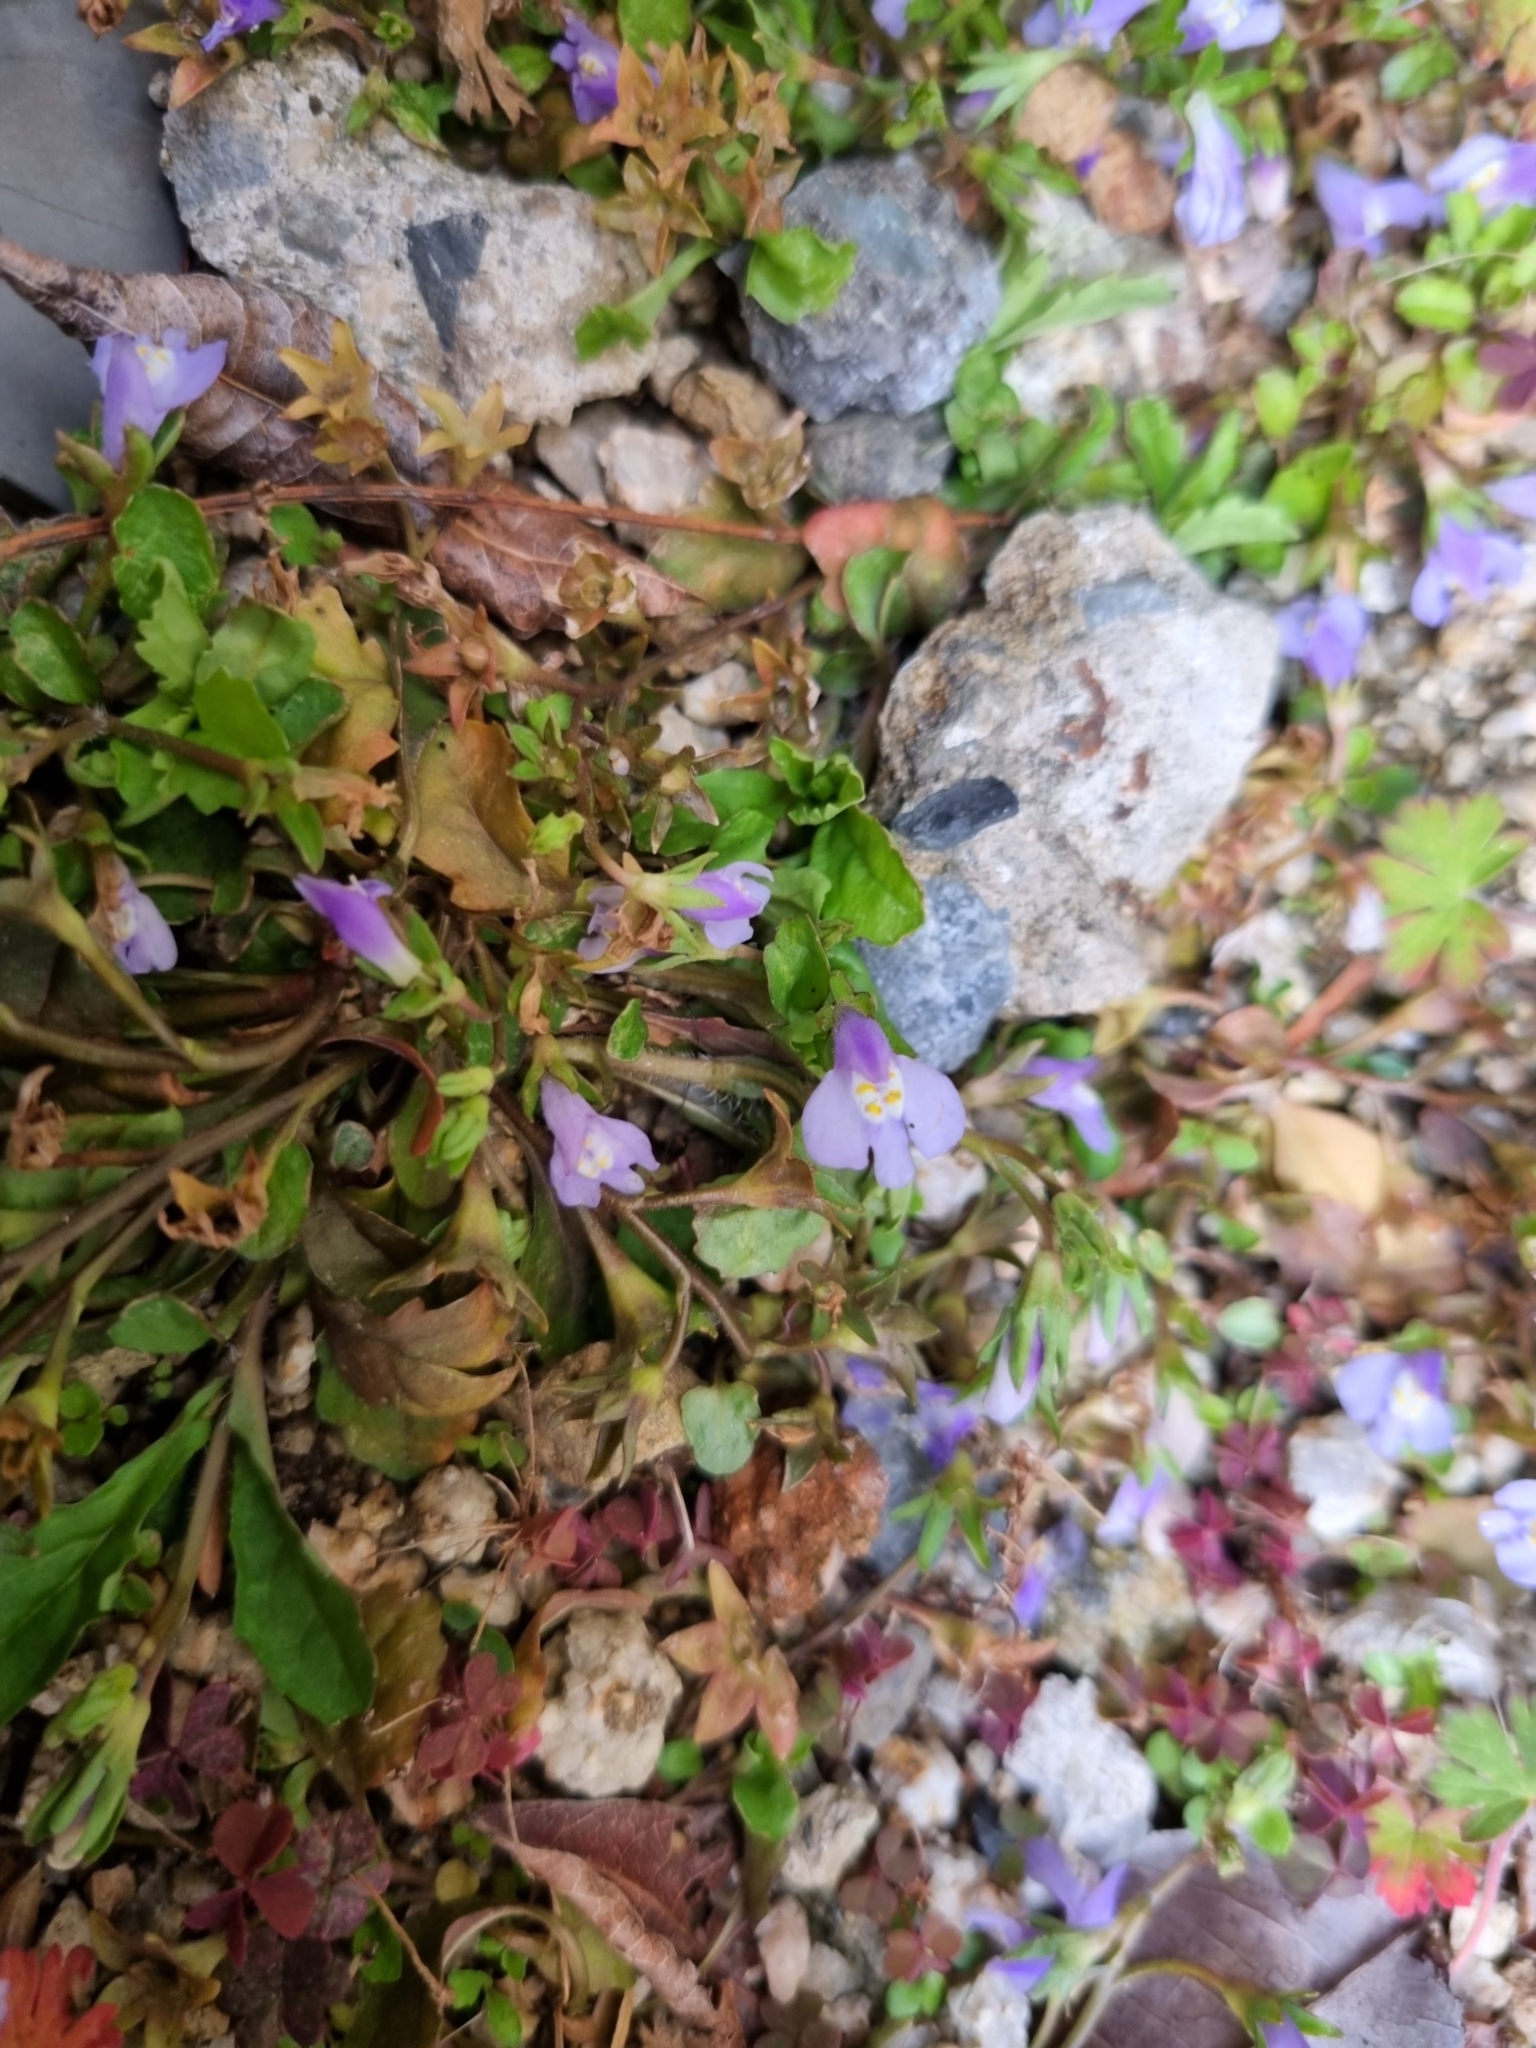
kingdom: Plantae
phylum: Tracheophyta
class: Magnoliopsida
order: Lamiales
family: Mazaceae
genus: Mazus
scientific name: Mazus pumilus
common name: Japanese mazus
